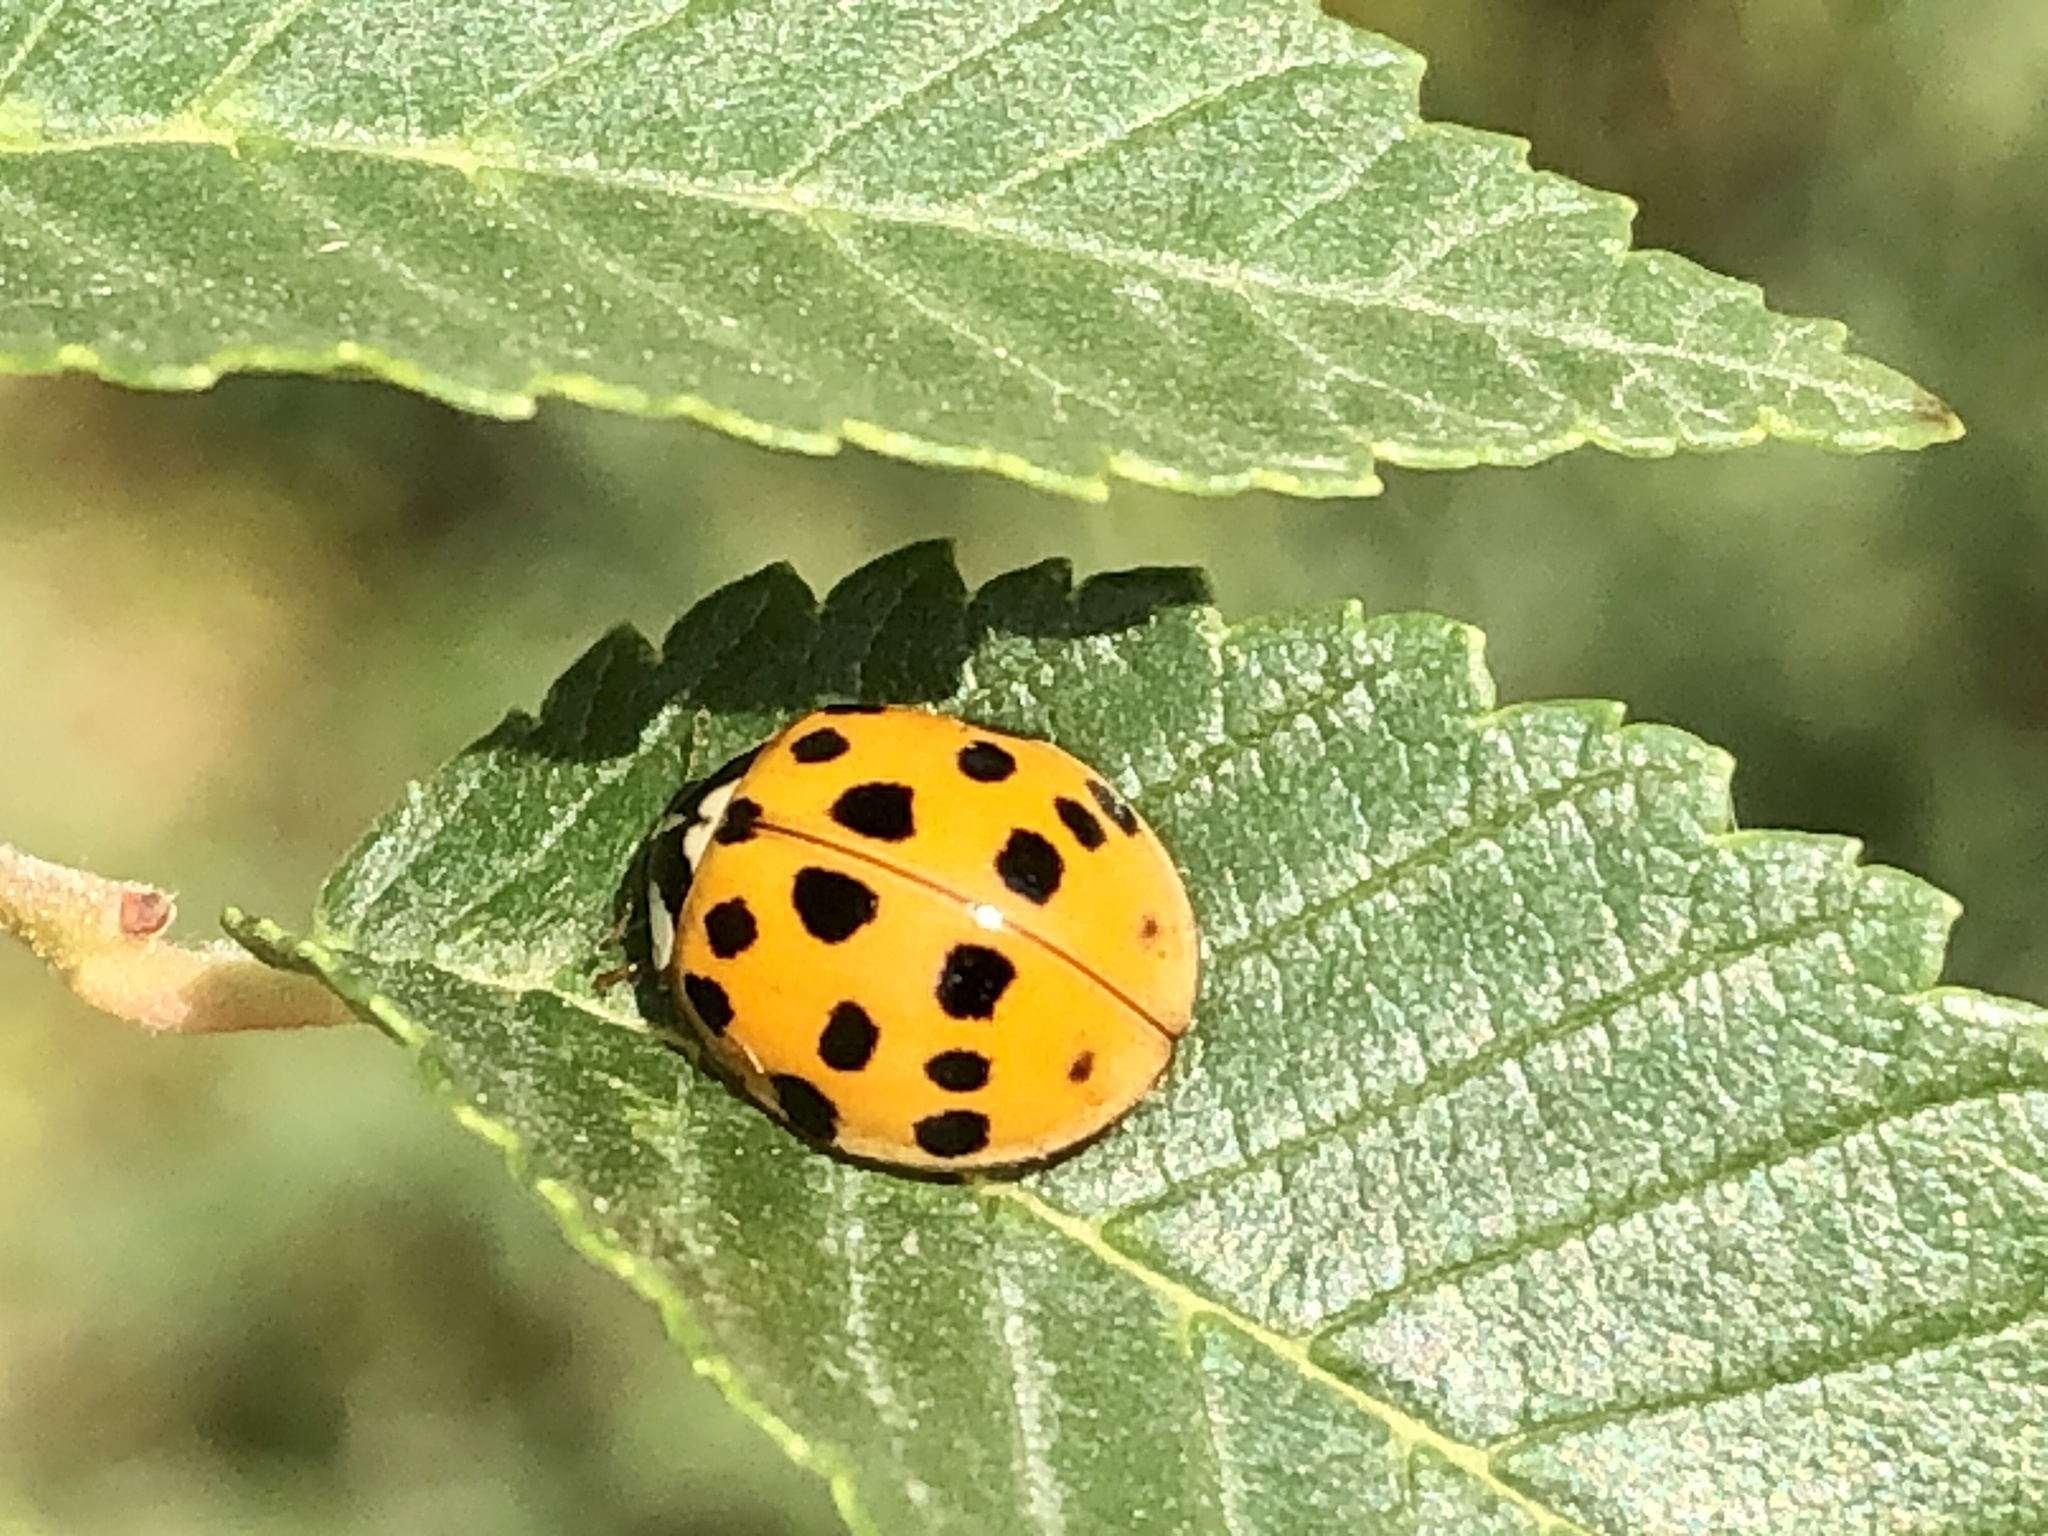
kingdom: Animalia
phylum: Arthropoda
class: Insecta
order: Coleoptera
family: Coccinellidae
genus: Harmonia
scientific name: Harmonia axyridis
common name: Harlequin ladybird
